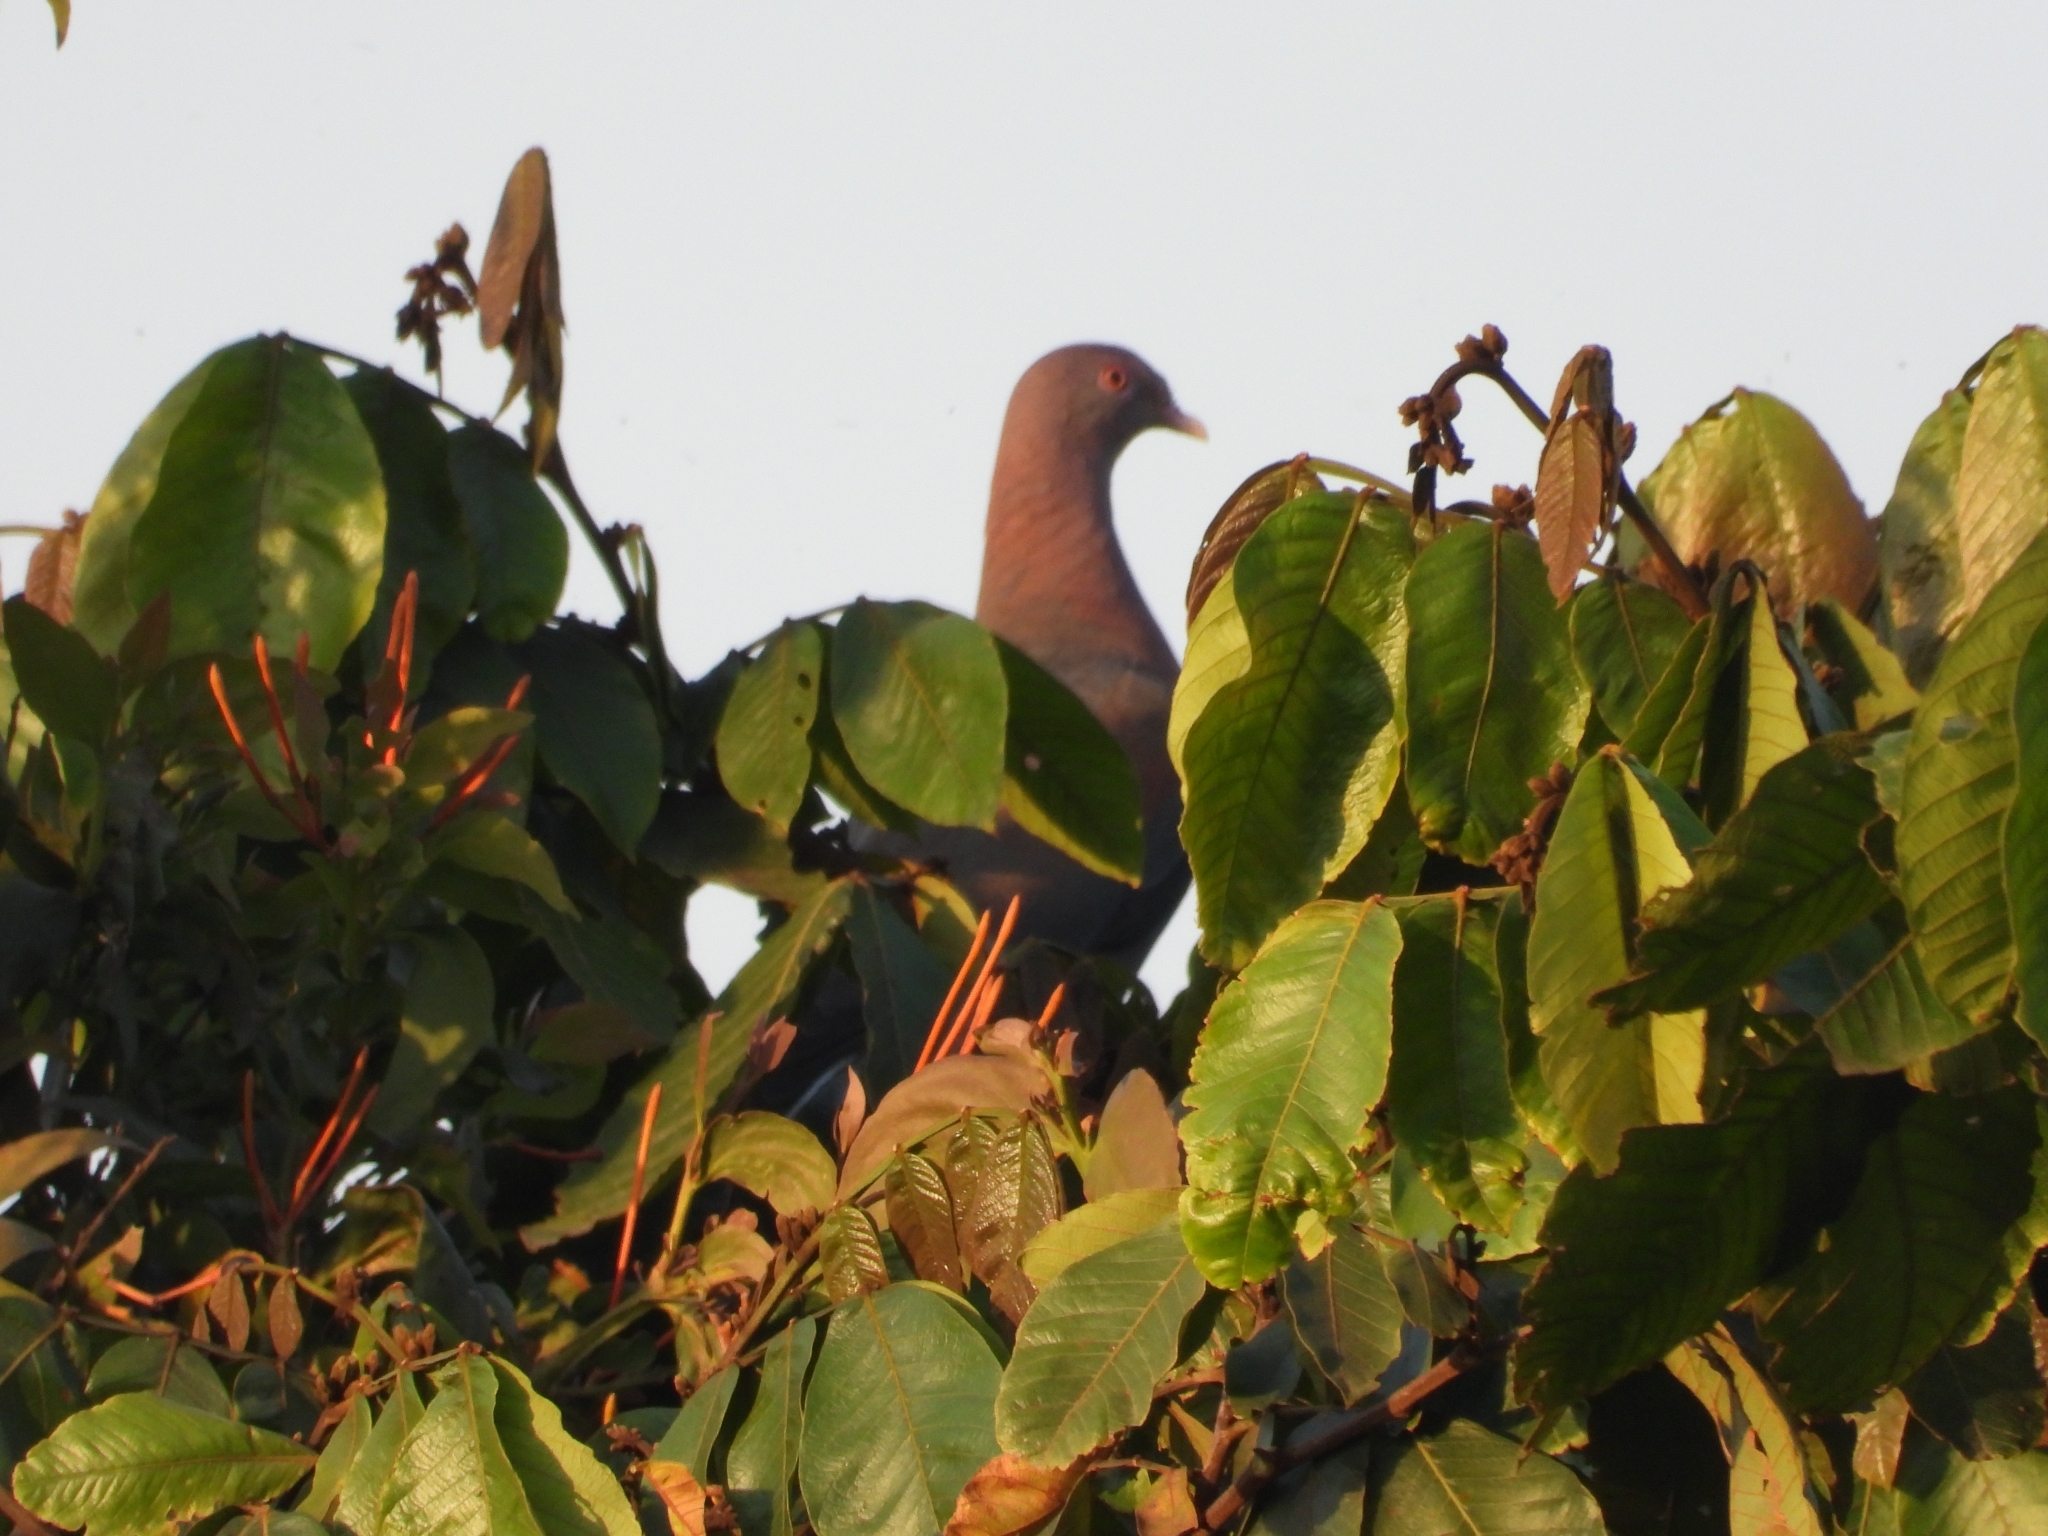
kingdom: Animalia
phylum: Chordata
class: Aves
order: Columbiformes
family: Columbidae
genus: Patagioenas
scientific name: Patagioenas flavirostris
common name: Red-billed pigeon
